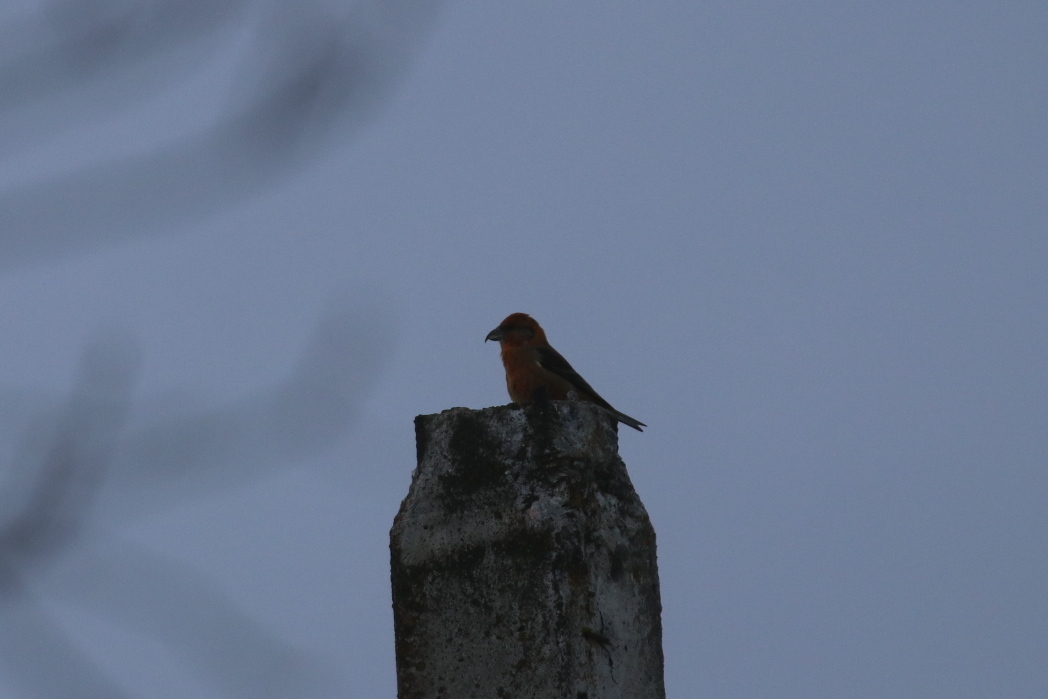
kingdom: Animalia
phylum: Chordata
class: Aves
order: Passeriformes
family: Fringillidae
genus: Loxia
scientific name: Loxia curvirostra
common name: Red crossbill
